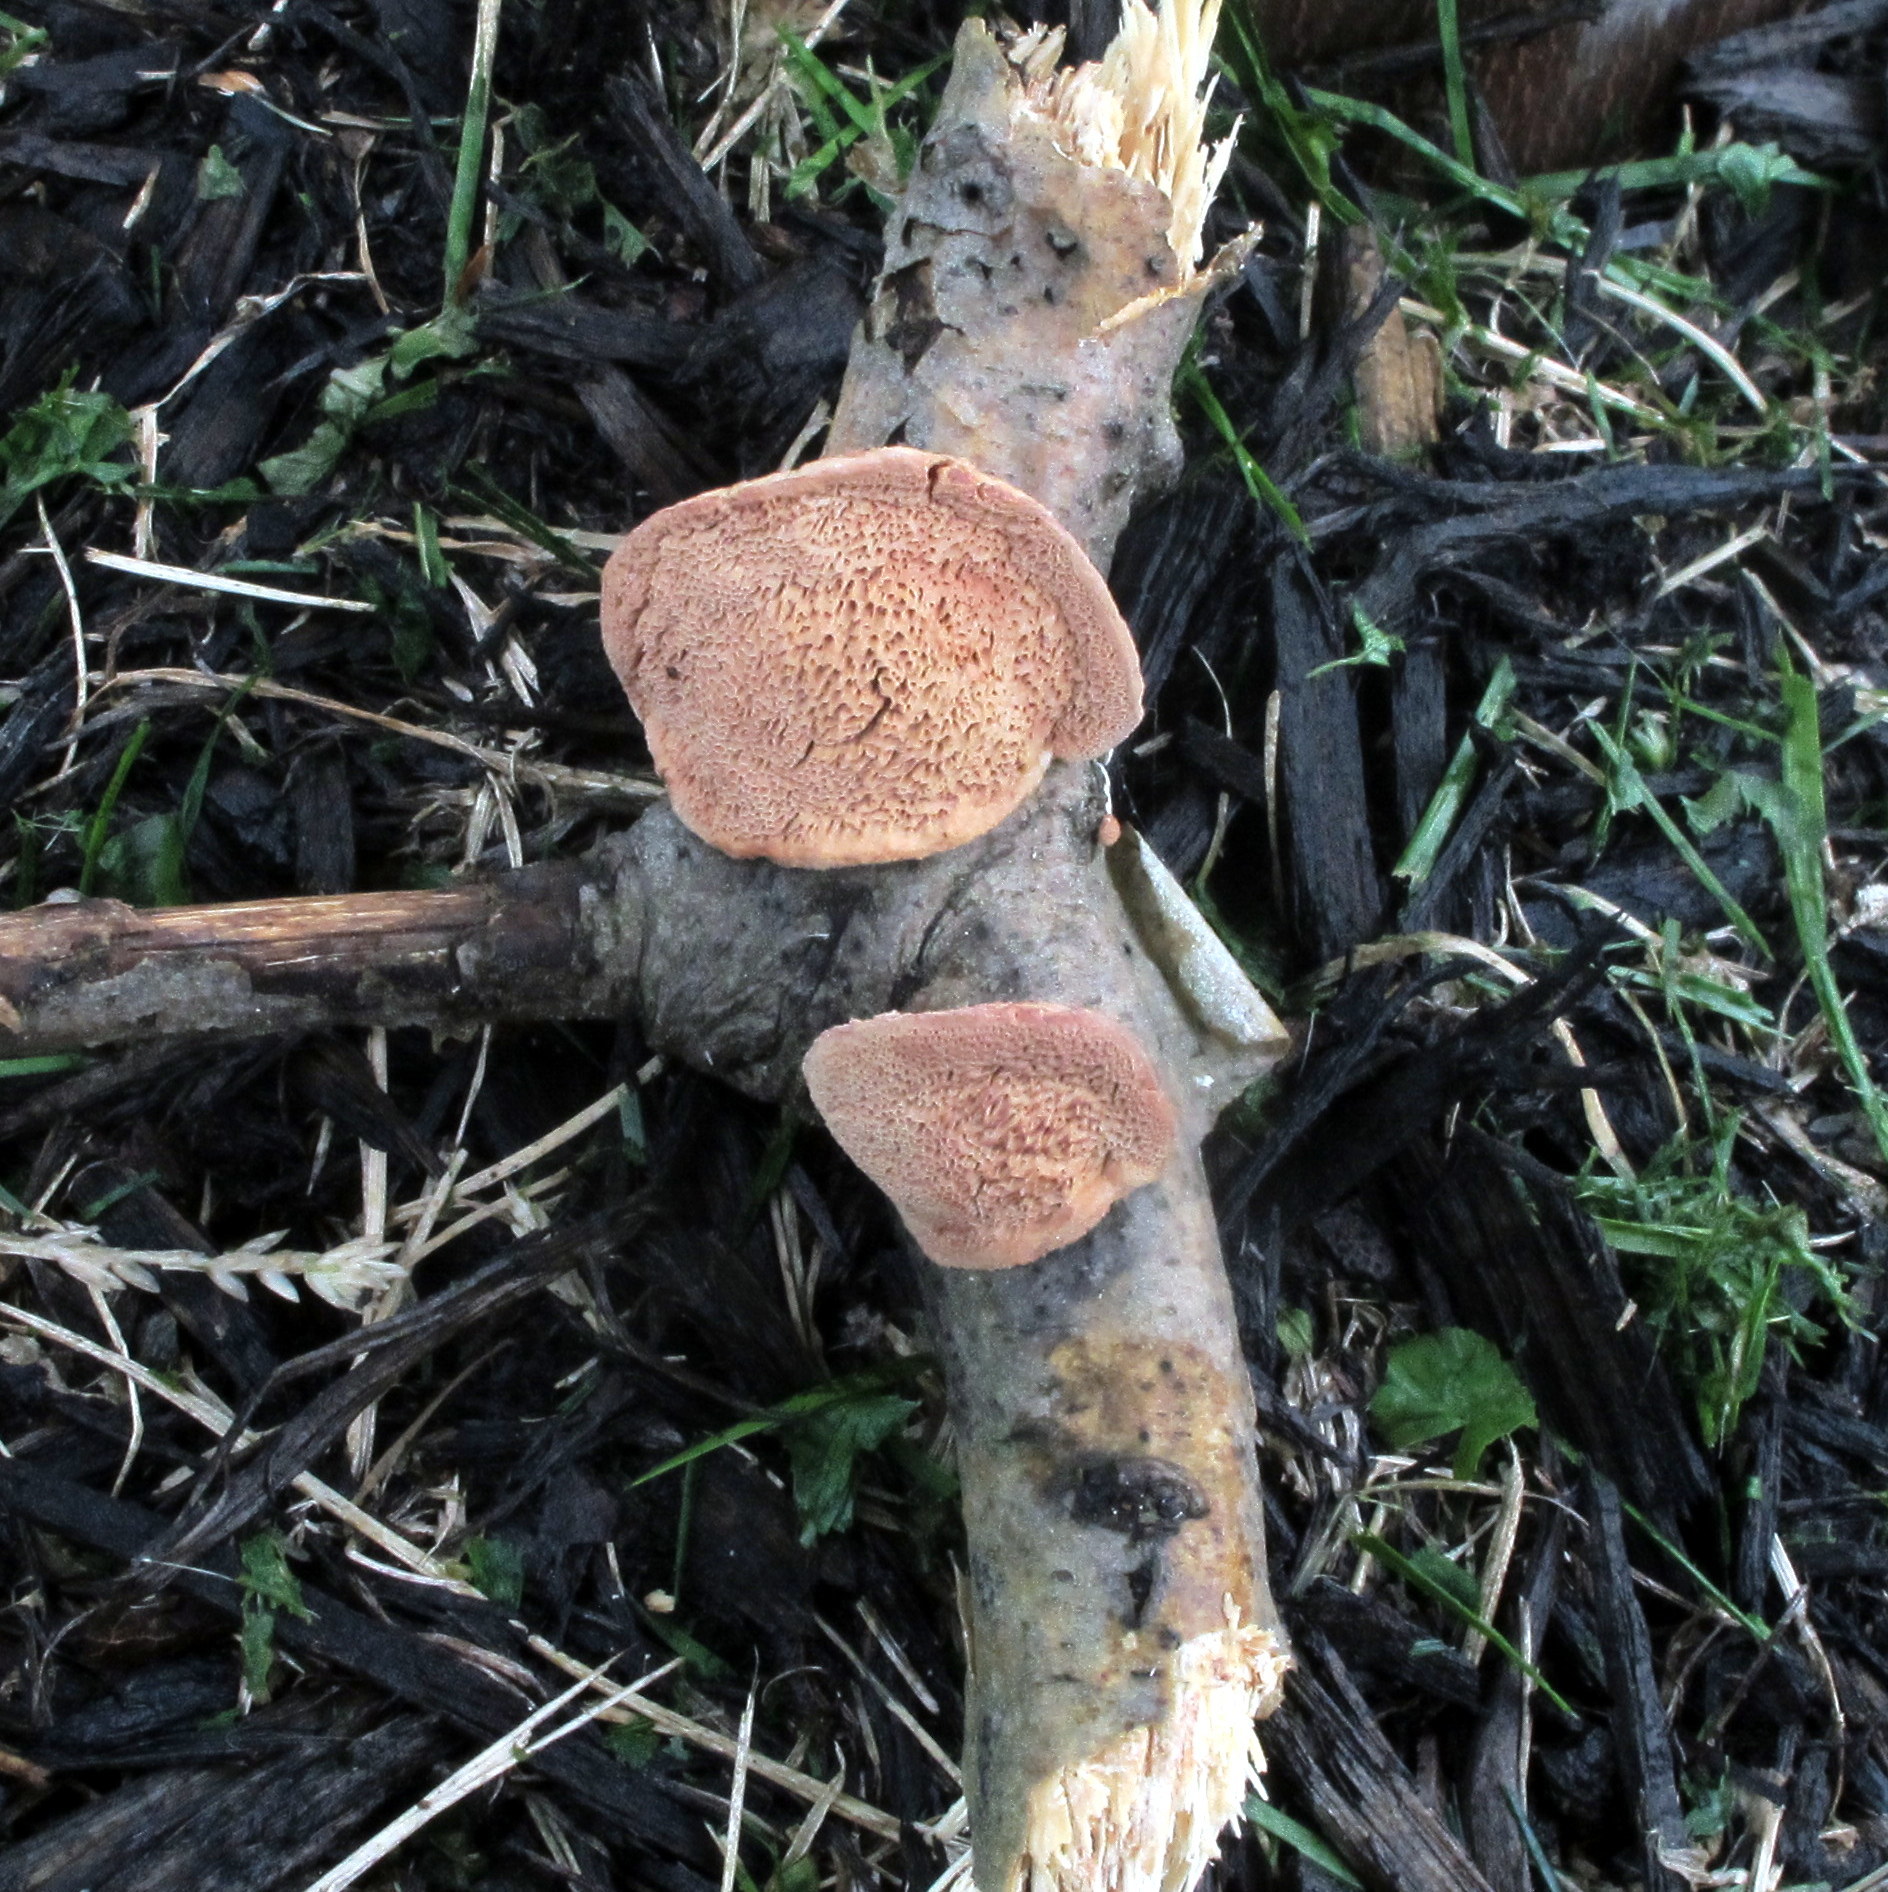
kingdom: Fungi
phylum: Basidiomycota
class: Agaricomycetes
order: Polyporales
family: Phanerochaetaceae
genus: Hapalopilus
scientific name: Hapalopilus rutilans
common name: Tender nesting polypore
